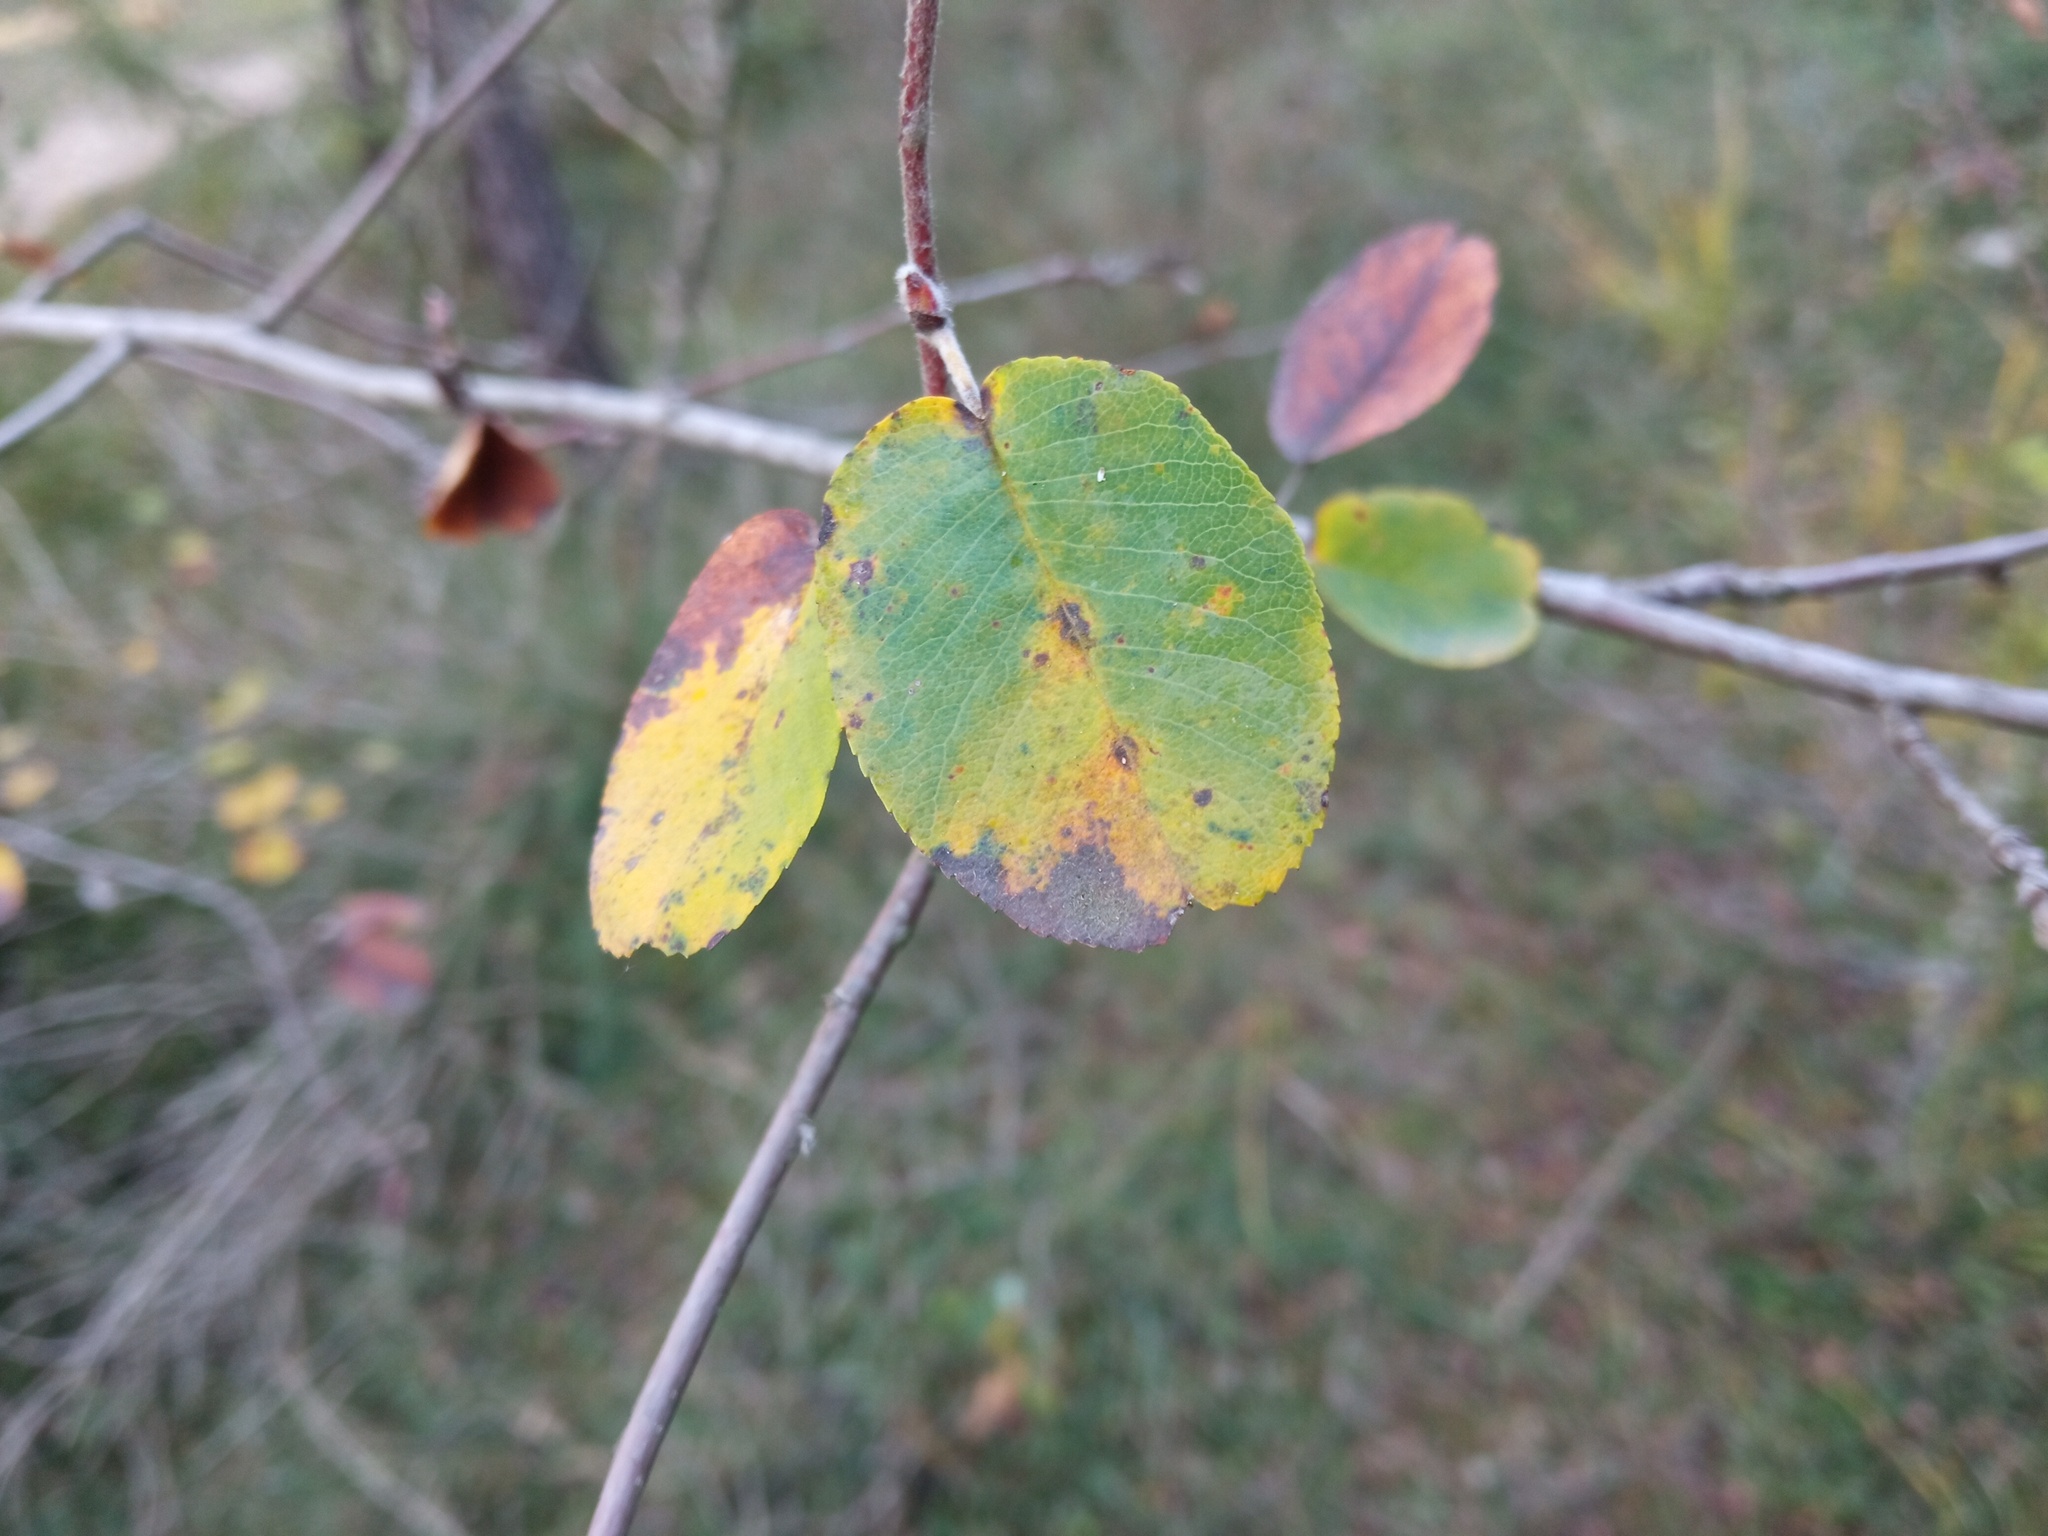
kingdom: Plantae
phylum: Tracheophyta
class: Magnoliopsida
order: Rosales
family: Rosaceae
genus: Amelanchier
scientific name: Amelanchier ovalis
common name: Serviceberry
